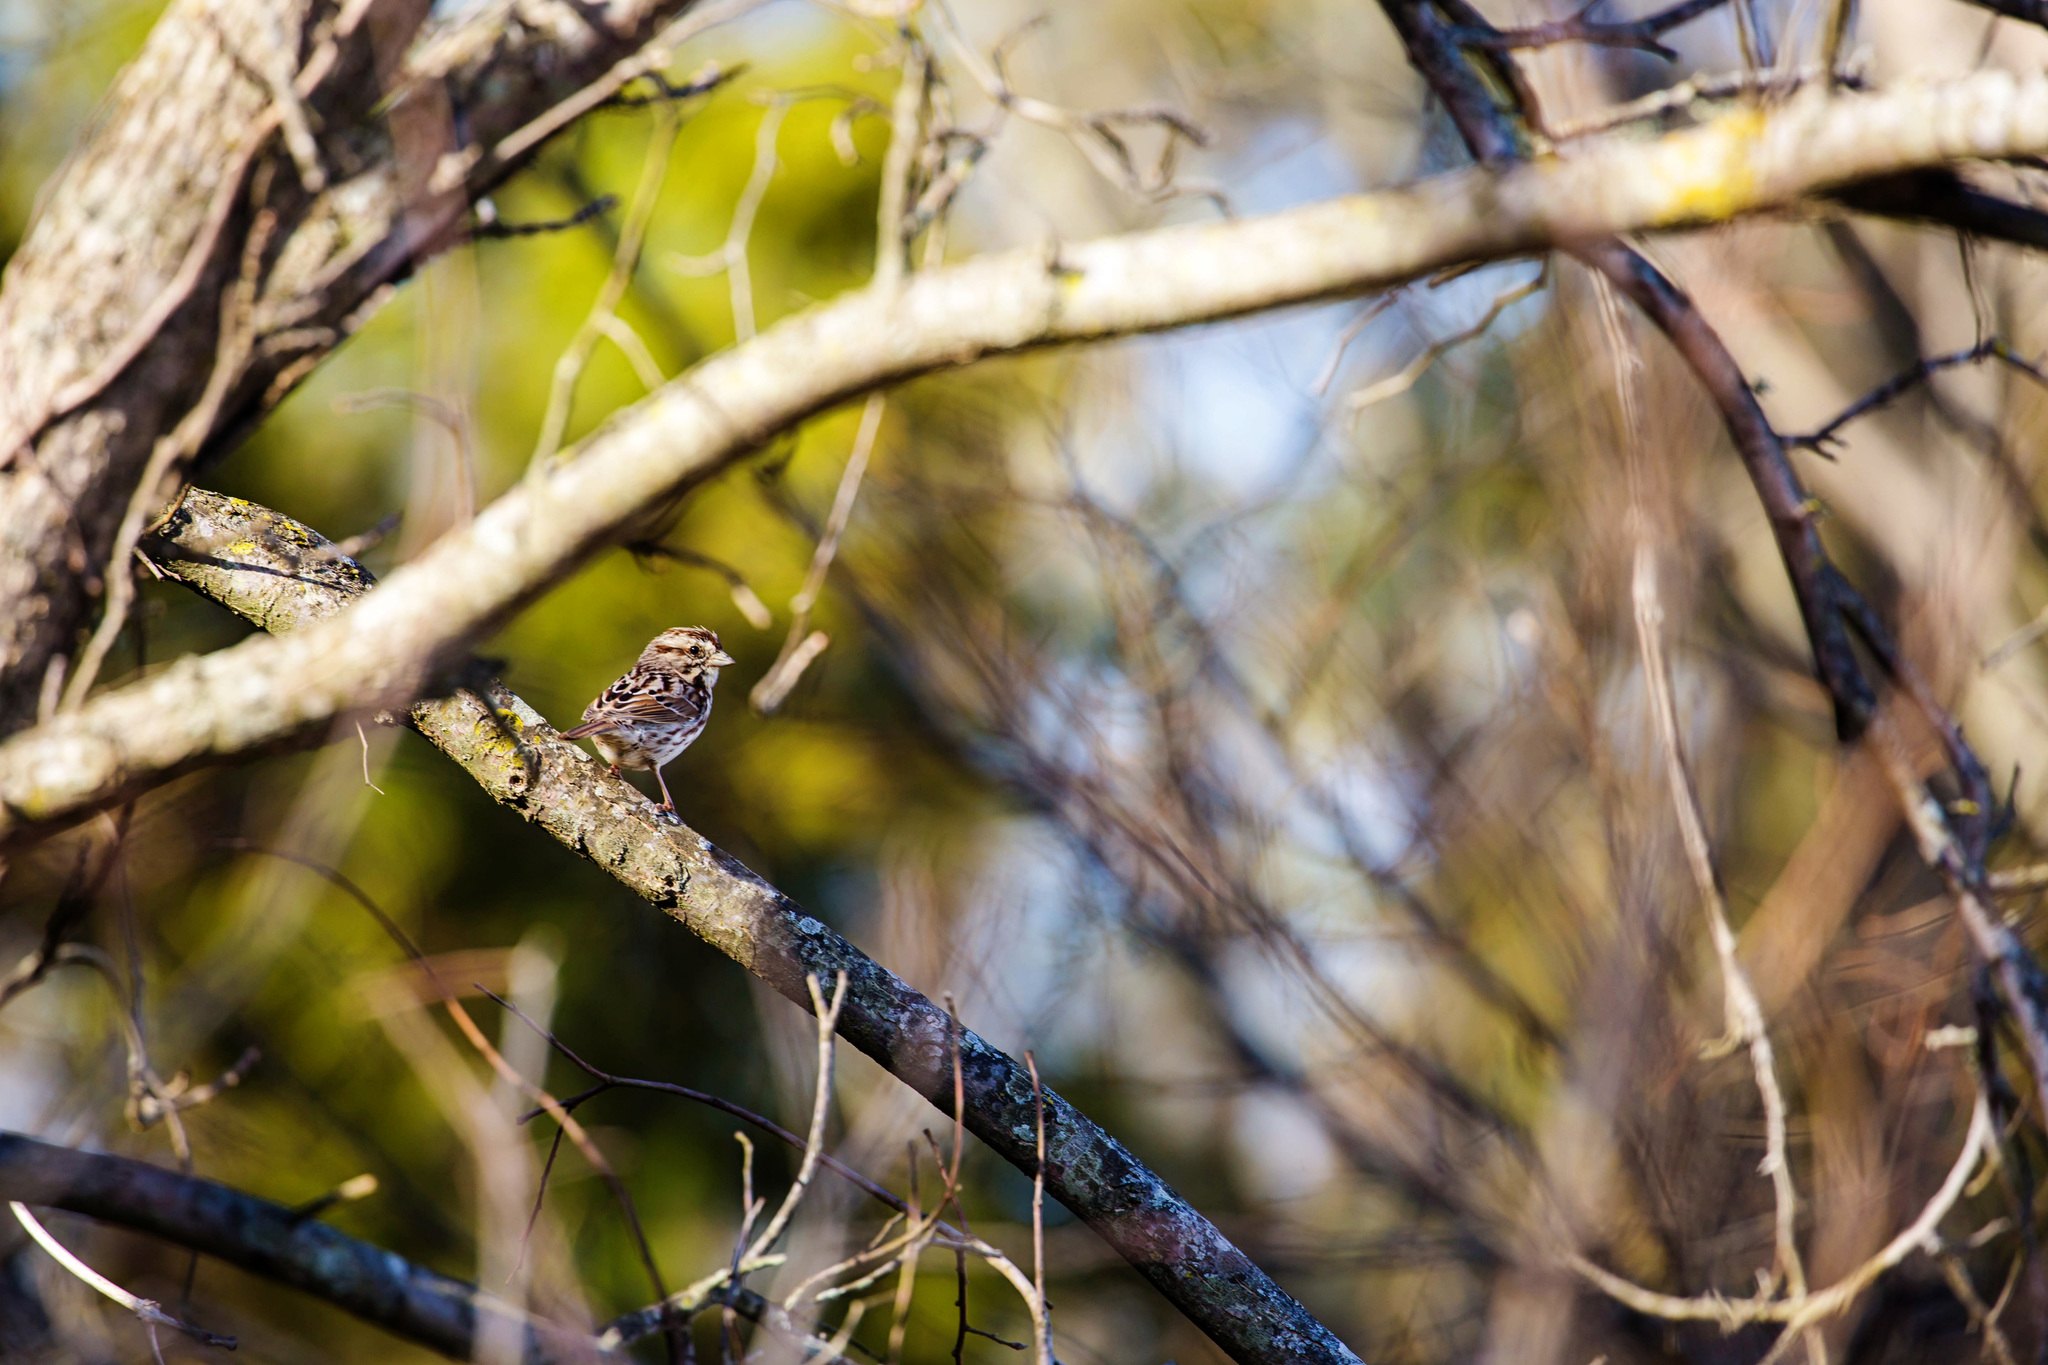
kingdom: Animalia
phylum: Chordata
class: Aves
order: Passeriformes
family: Passerellidae
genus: Melospiza
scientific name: Melospiza melodia
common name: Song sparrow
